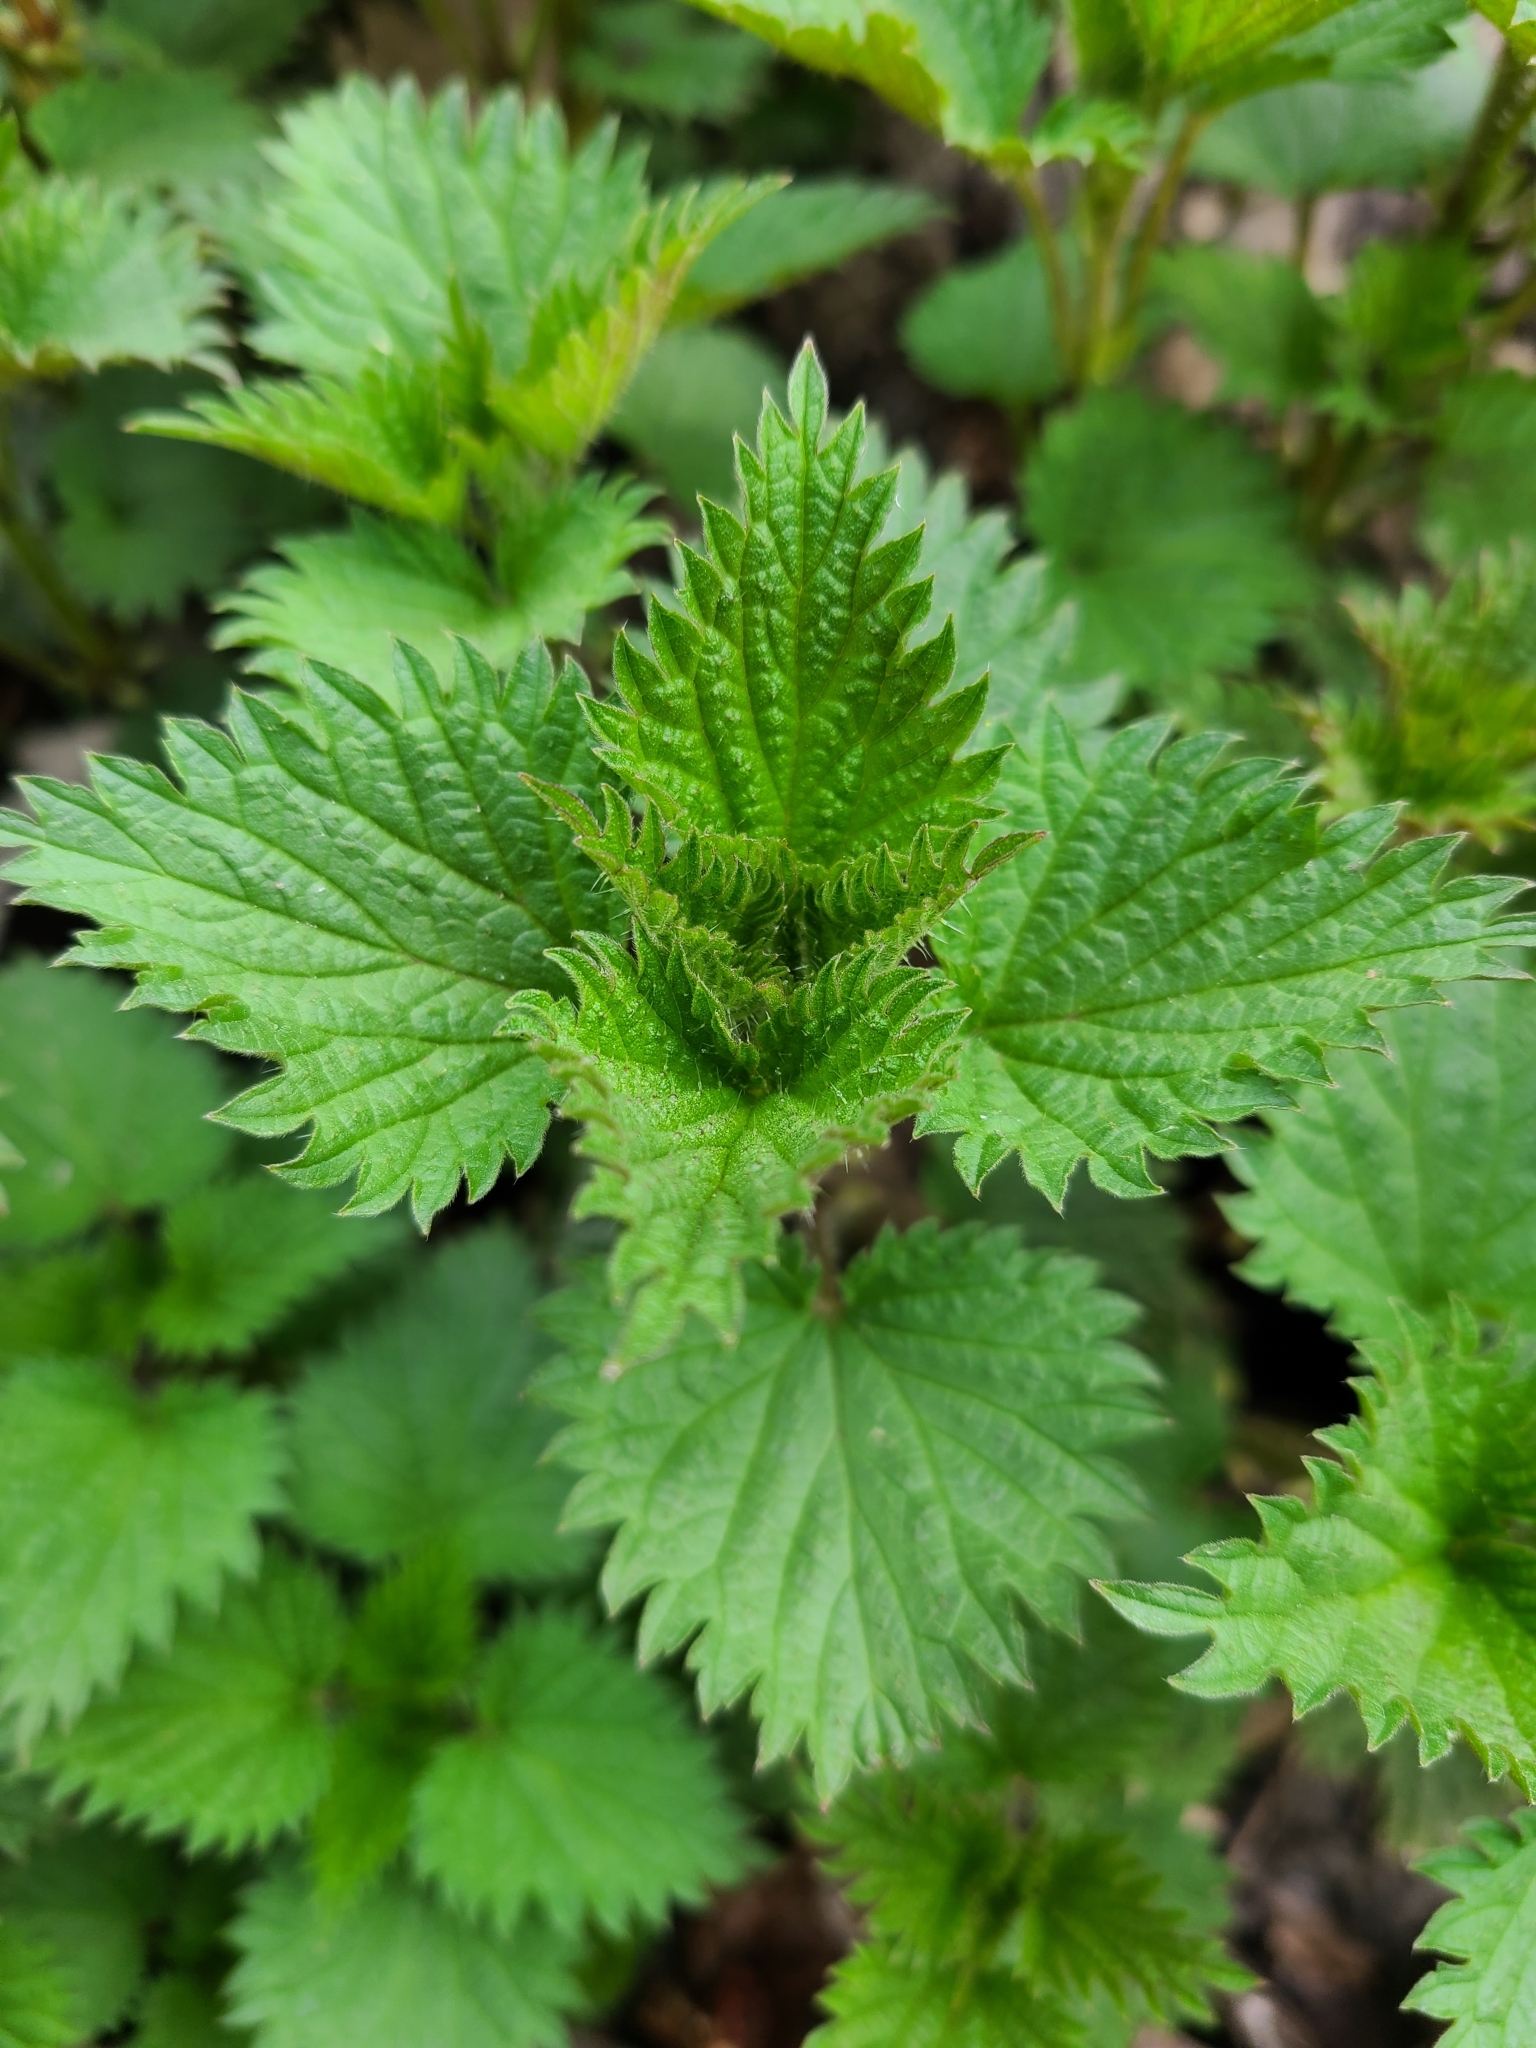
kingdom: Plantae
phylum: Tracheophyta
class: Magnoliopsida
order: Rosales
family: Urticaceae
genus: Urtica
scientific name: Urtica dioica
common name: Common nettle
